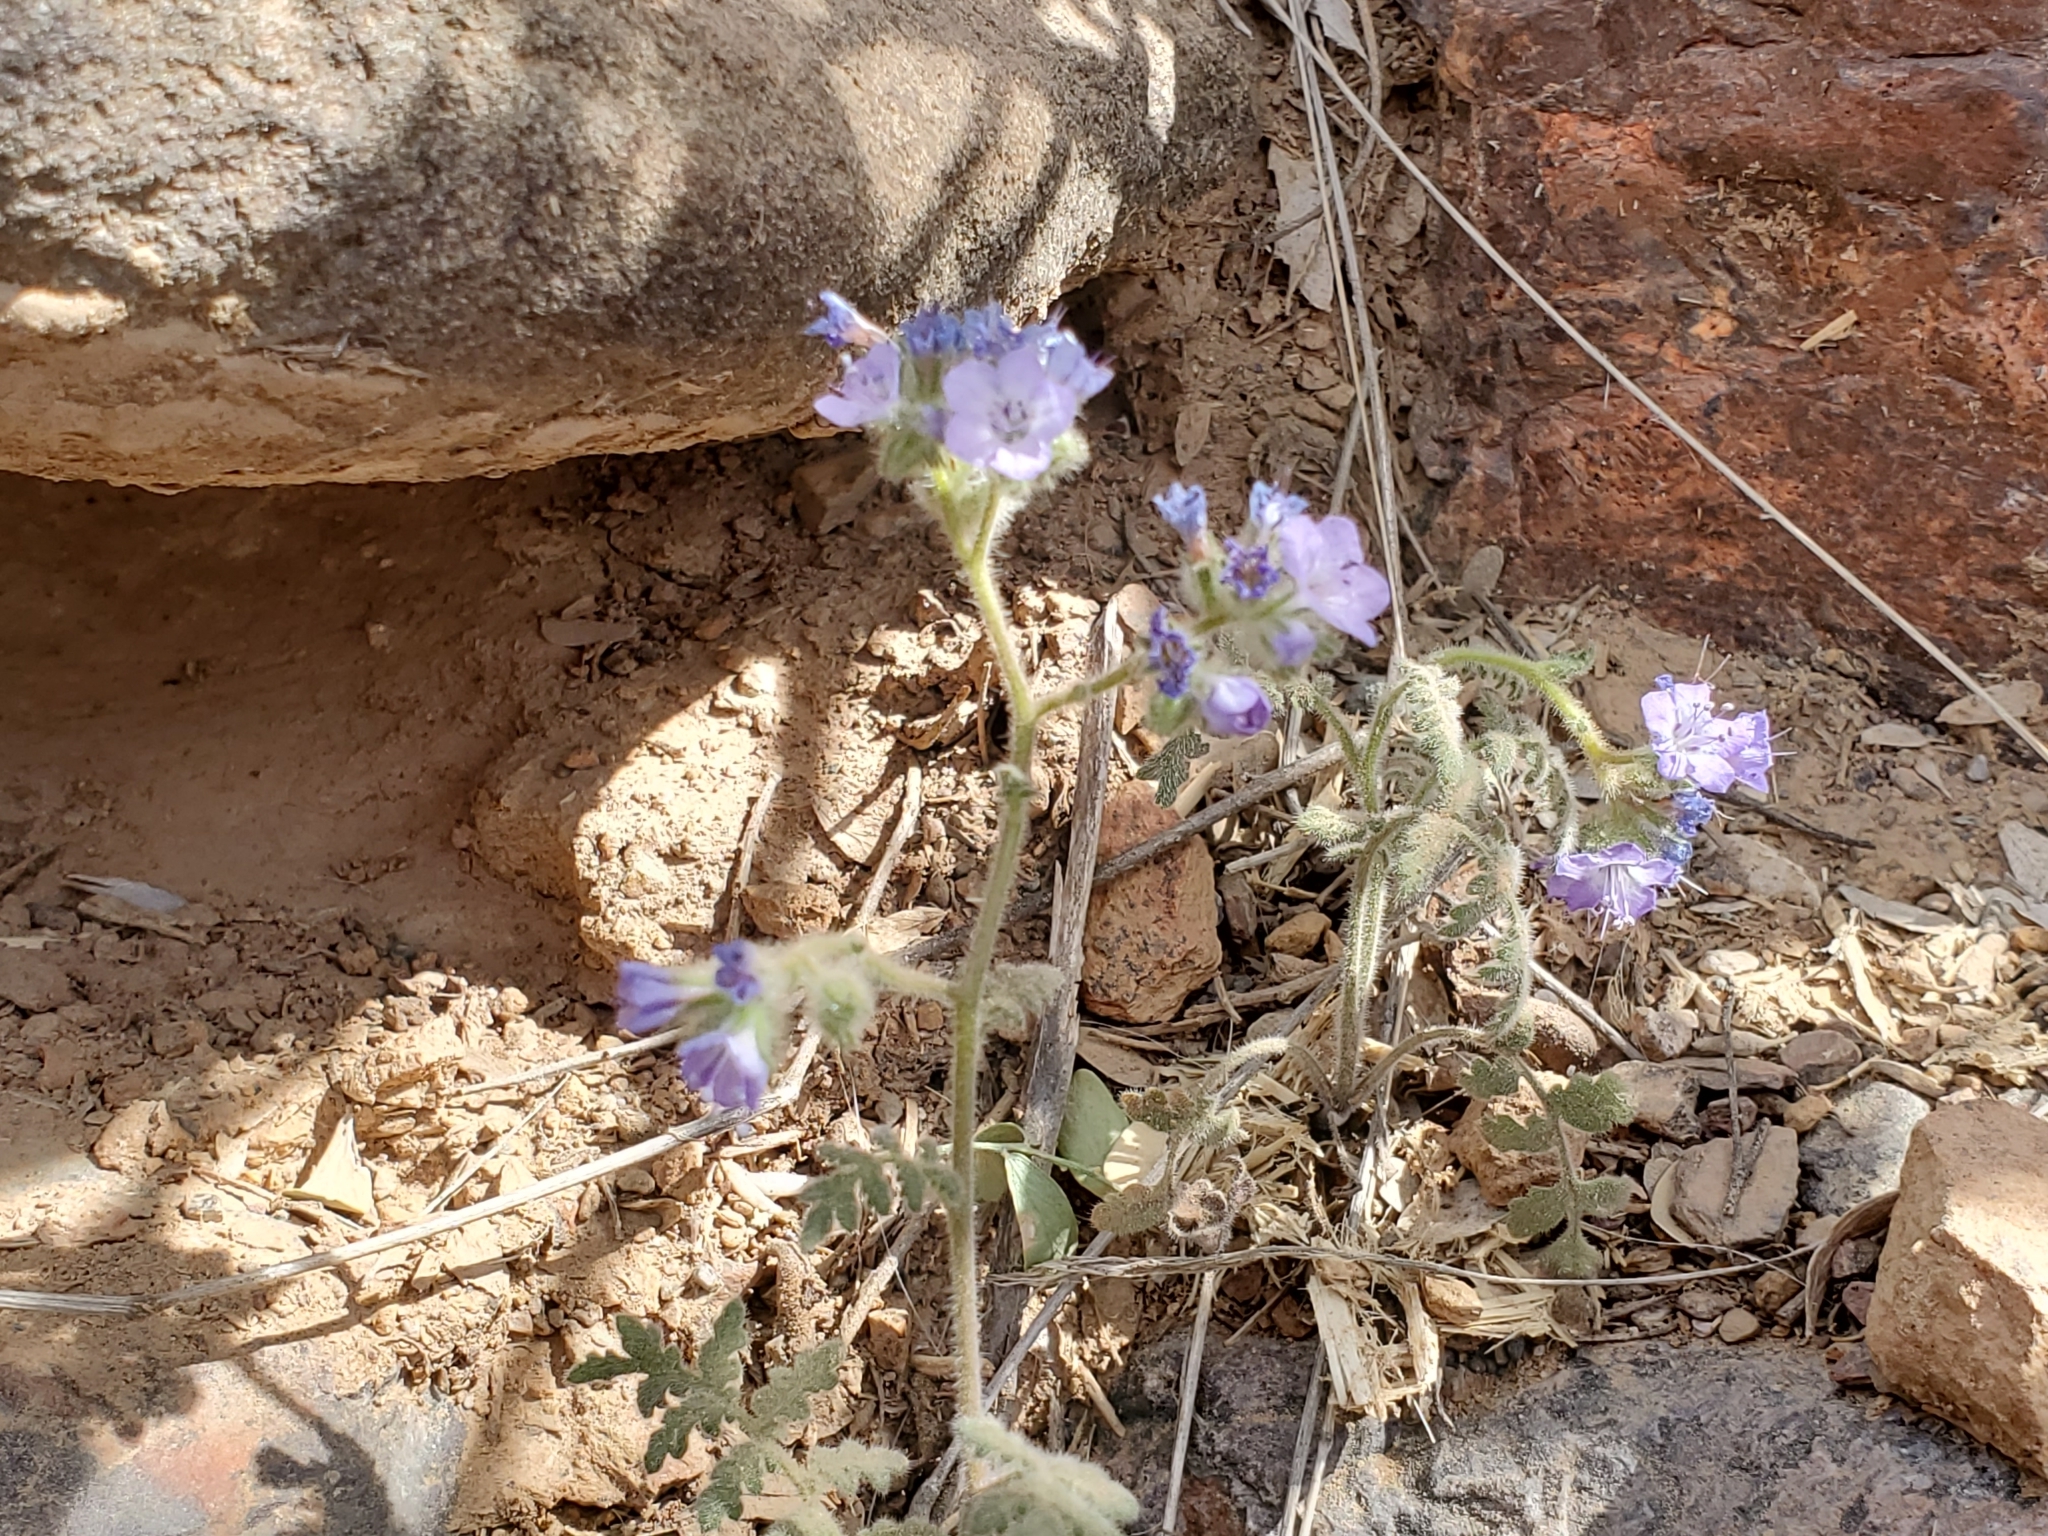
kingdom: Plantae
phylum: Tracheophyta
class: Magnoliopsida
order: Boraginales
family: Hydrophyllaceae
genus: Phacelia
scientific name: Phacelia distans
